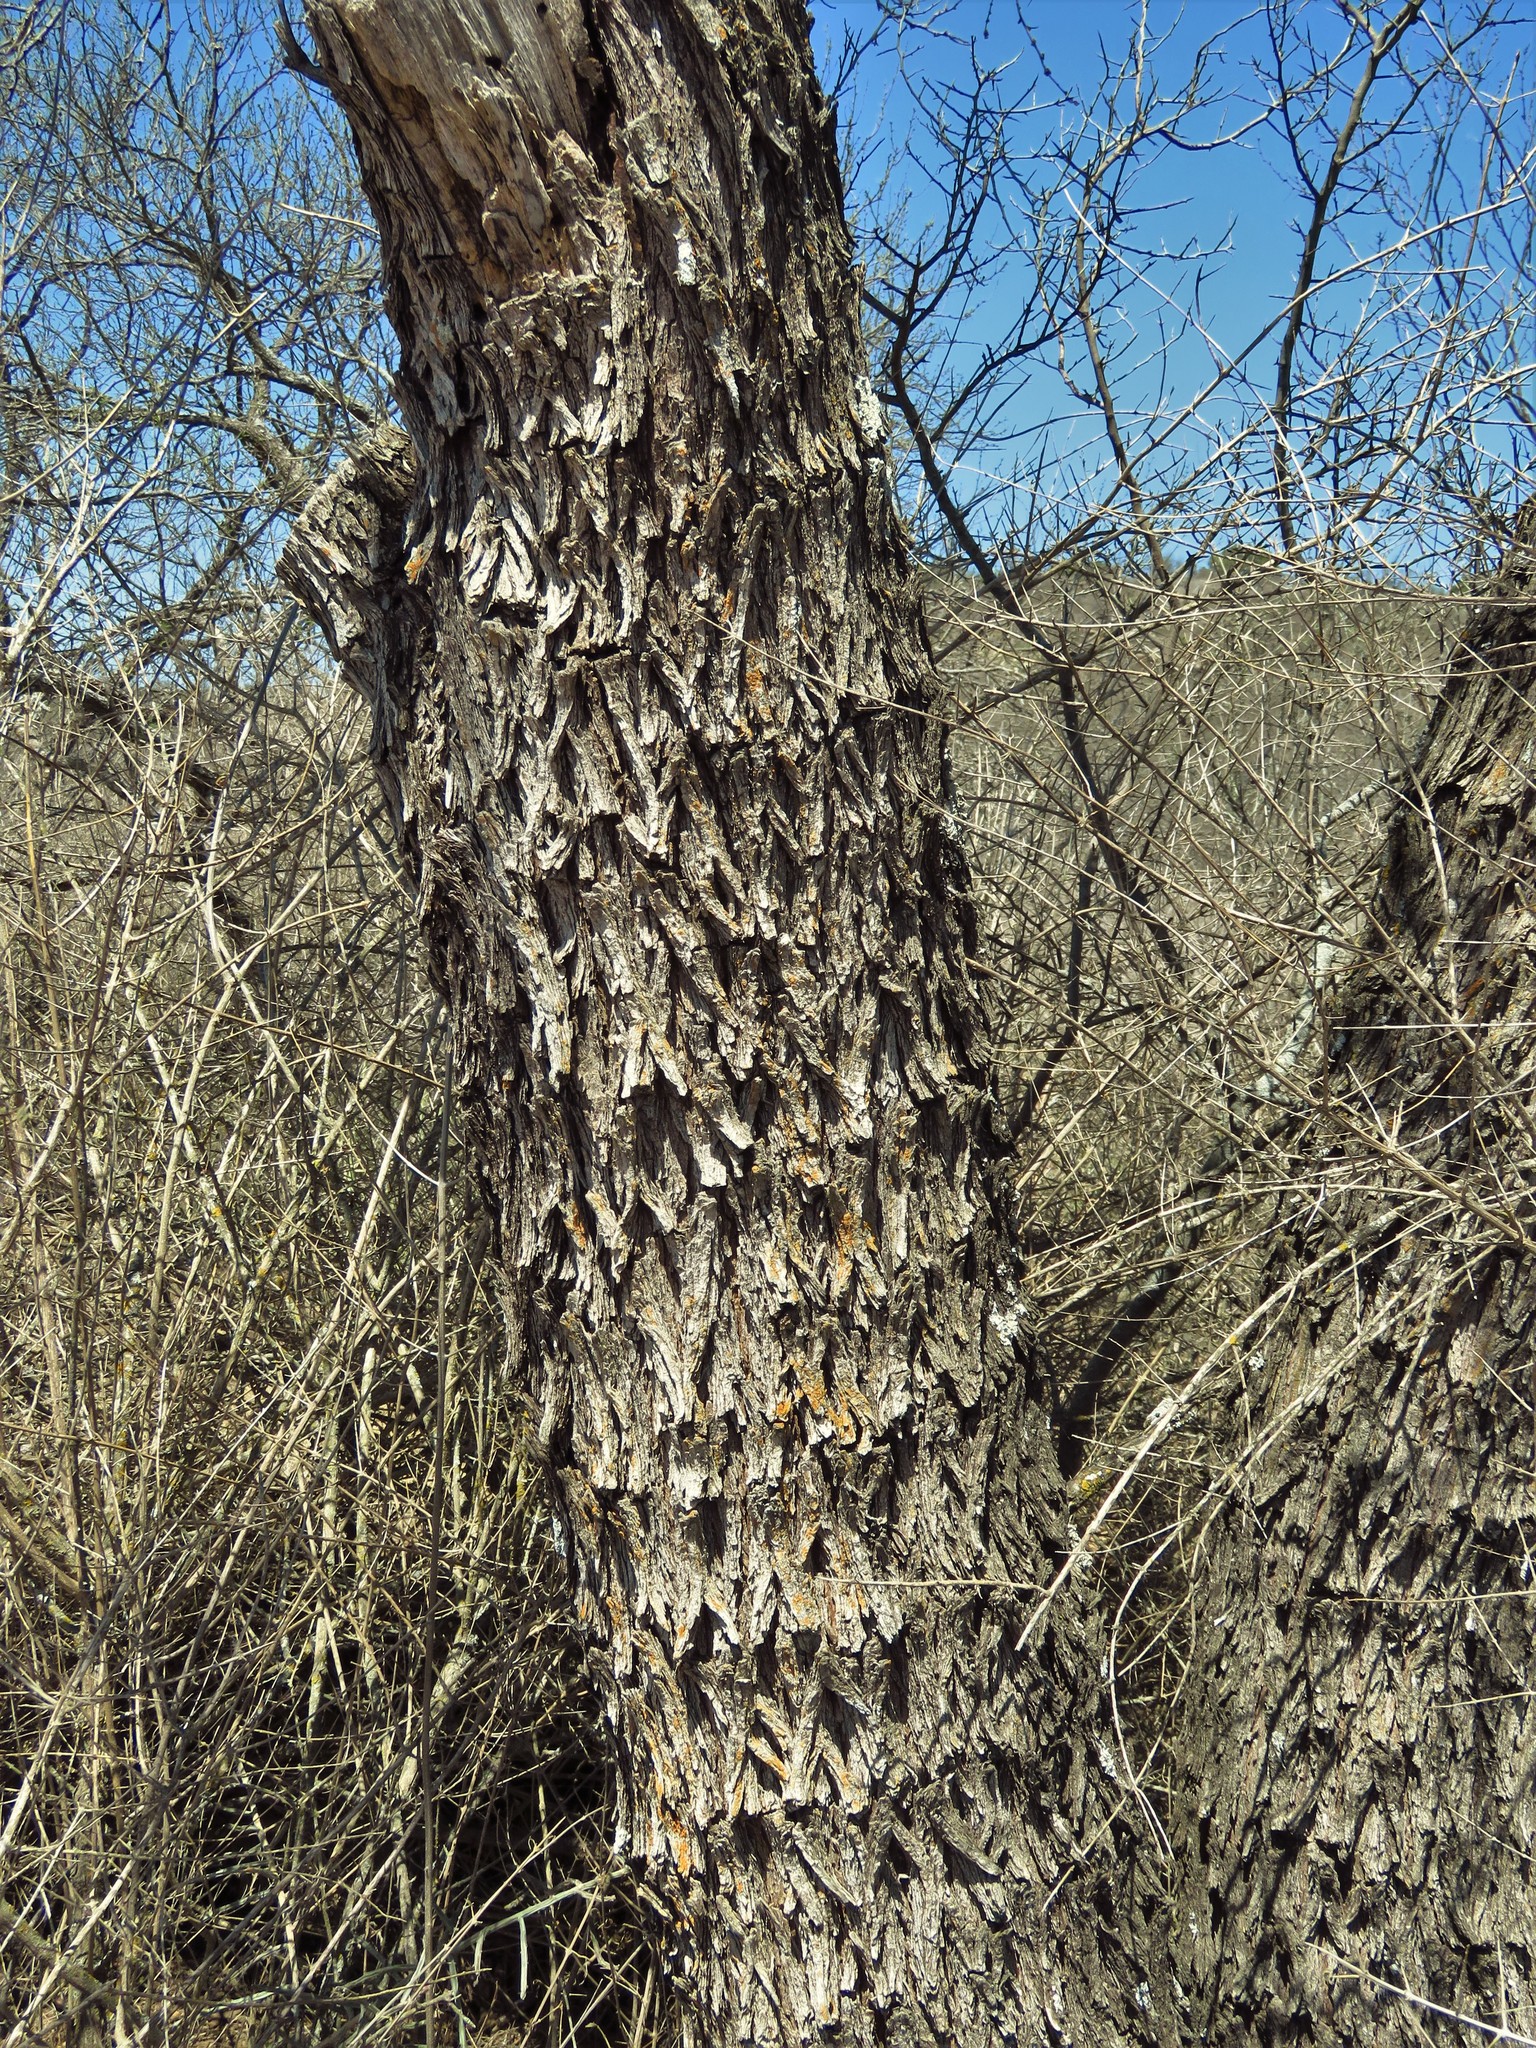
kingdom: Plantae
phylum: Tracheophyta
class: Magnoliopsida
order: Ericales
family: Sapotaceae
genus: Sideroxylon
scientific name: Sideroxylon lanuginosum
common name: Chittamwood
